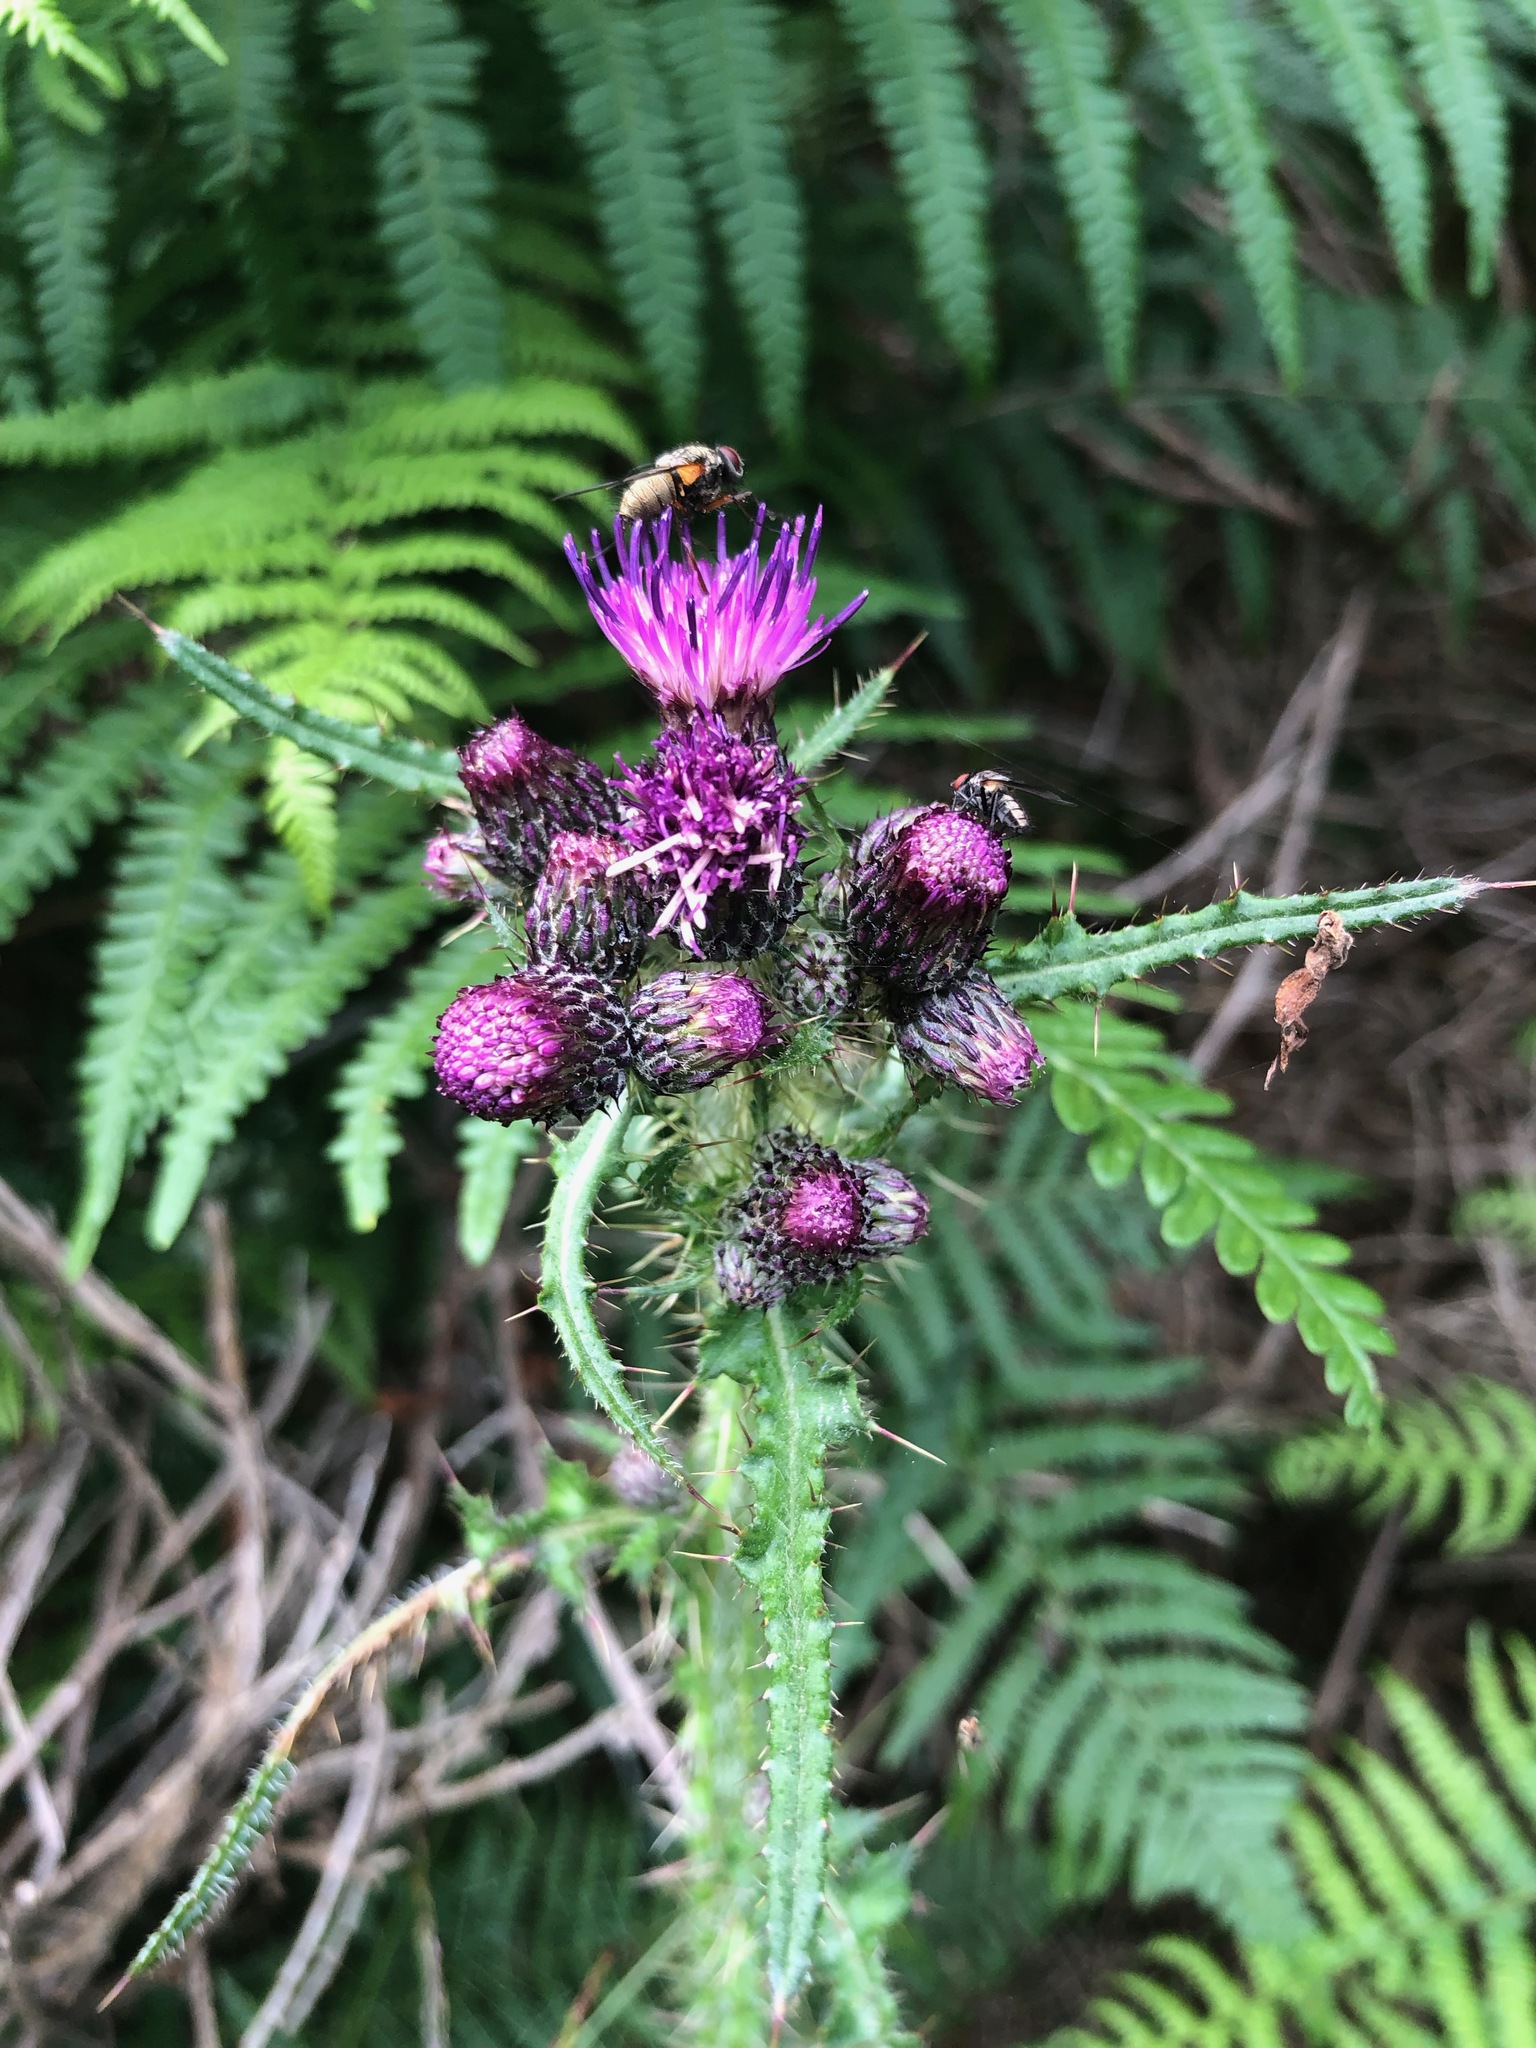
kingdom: Plantae
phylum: Tracheophyta
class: Magnoliopsida
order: Asterales
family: Asteraceae
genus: Cirsium
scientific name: Cirsium palustre
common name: Marsh thistle
